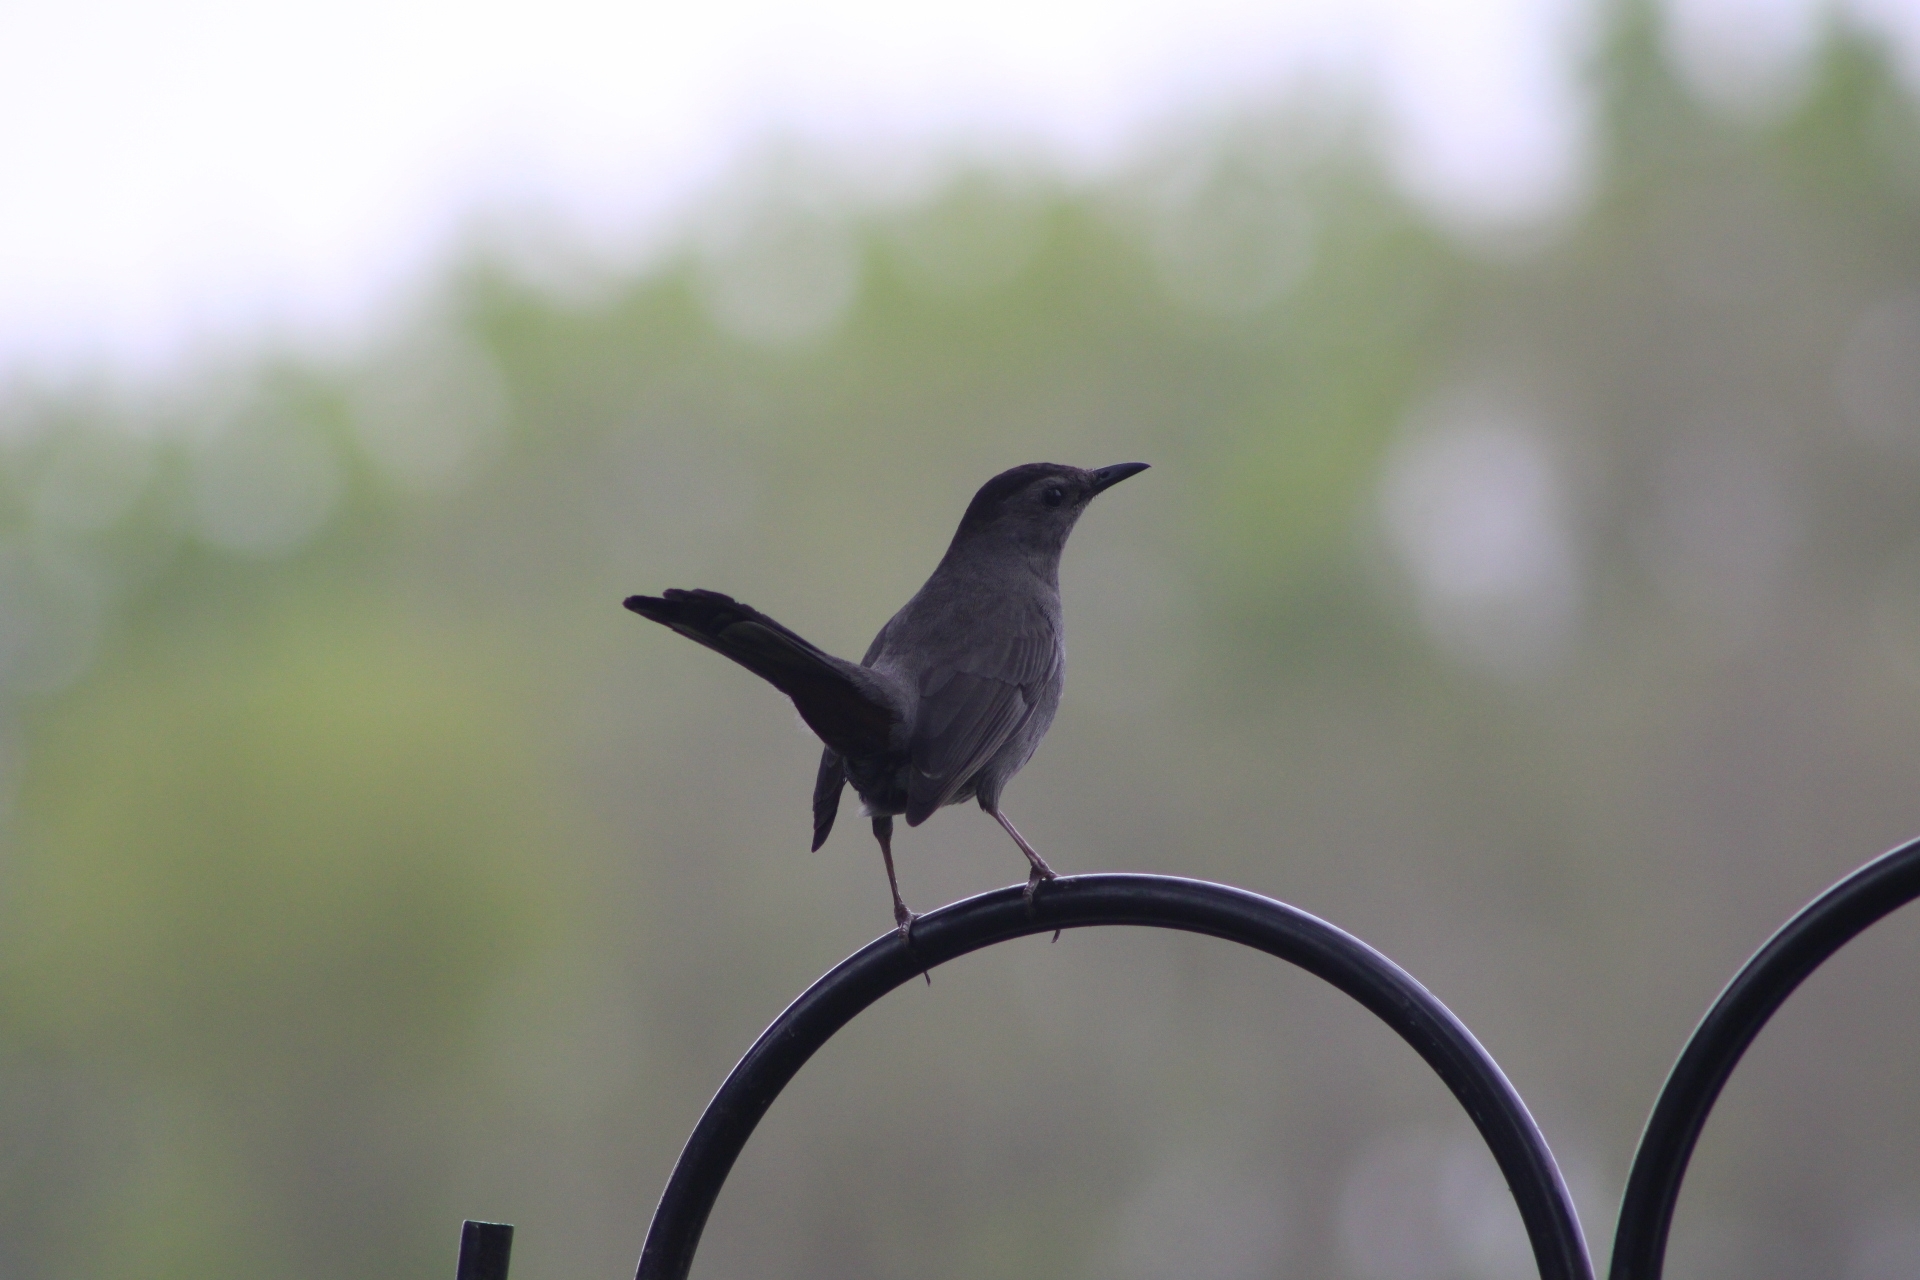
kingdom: Animalia
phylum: Chordata
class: Aves
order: Passeriformes
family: Mimidae
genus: Dumetella
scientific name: Dumetella carolinensis
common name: Gray catbird
